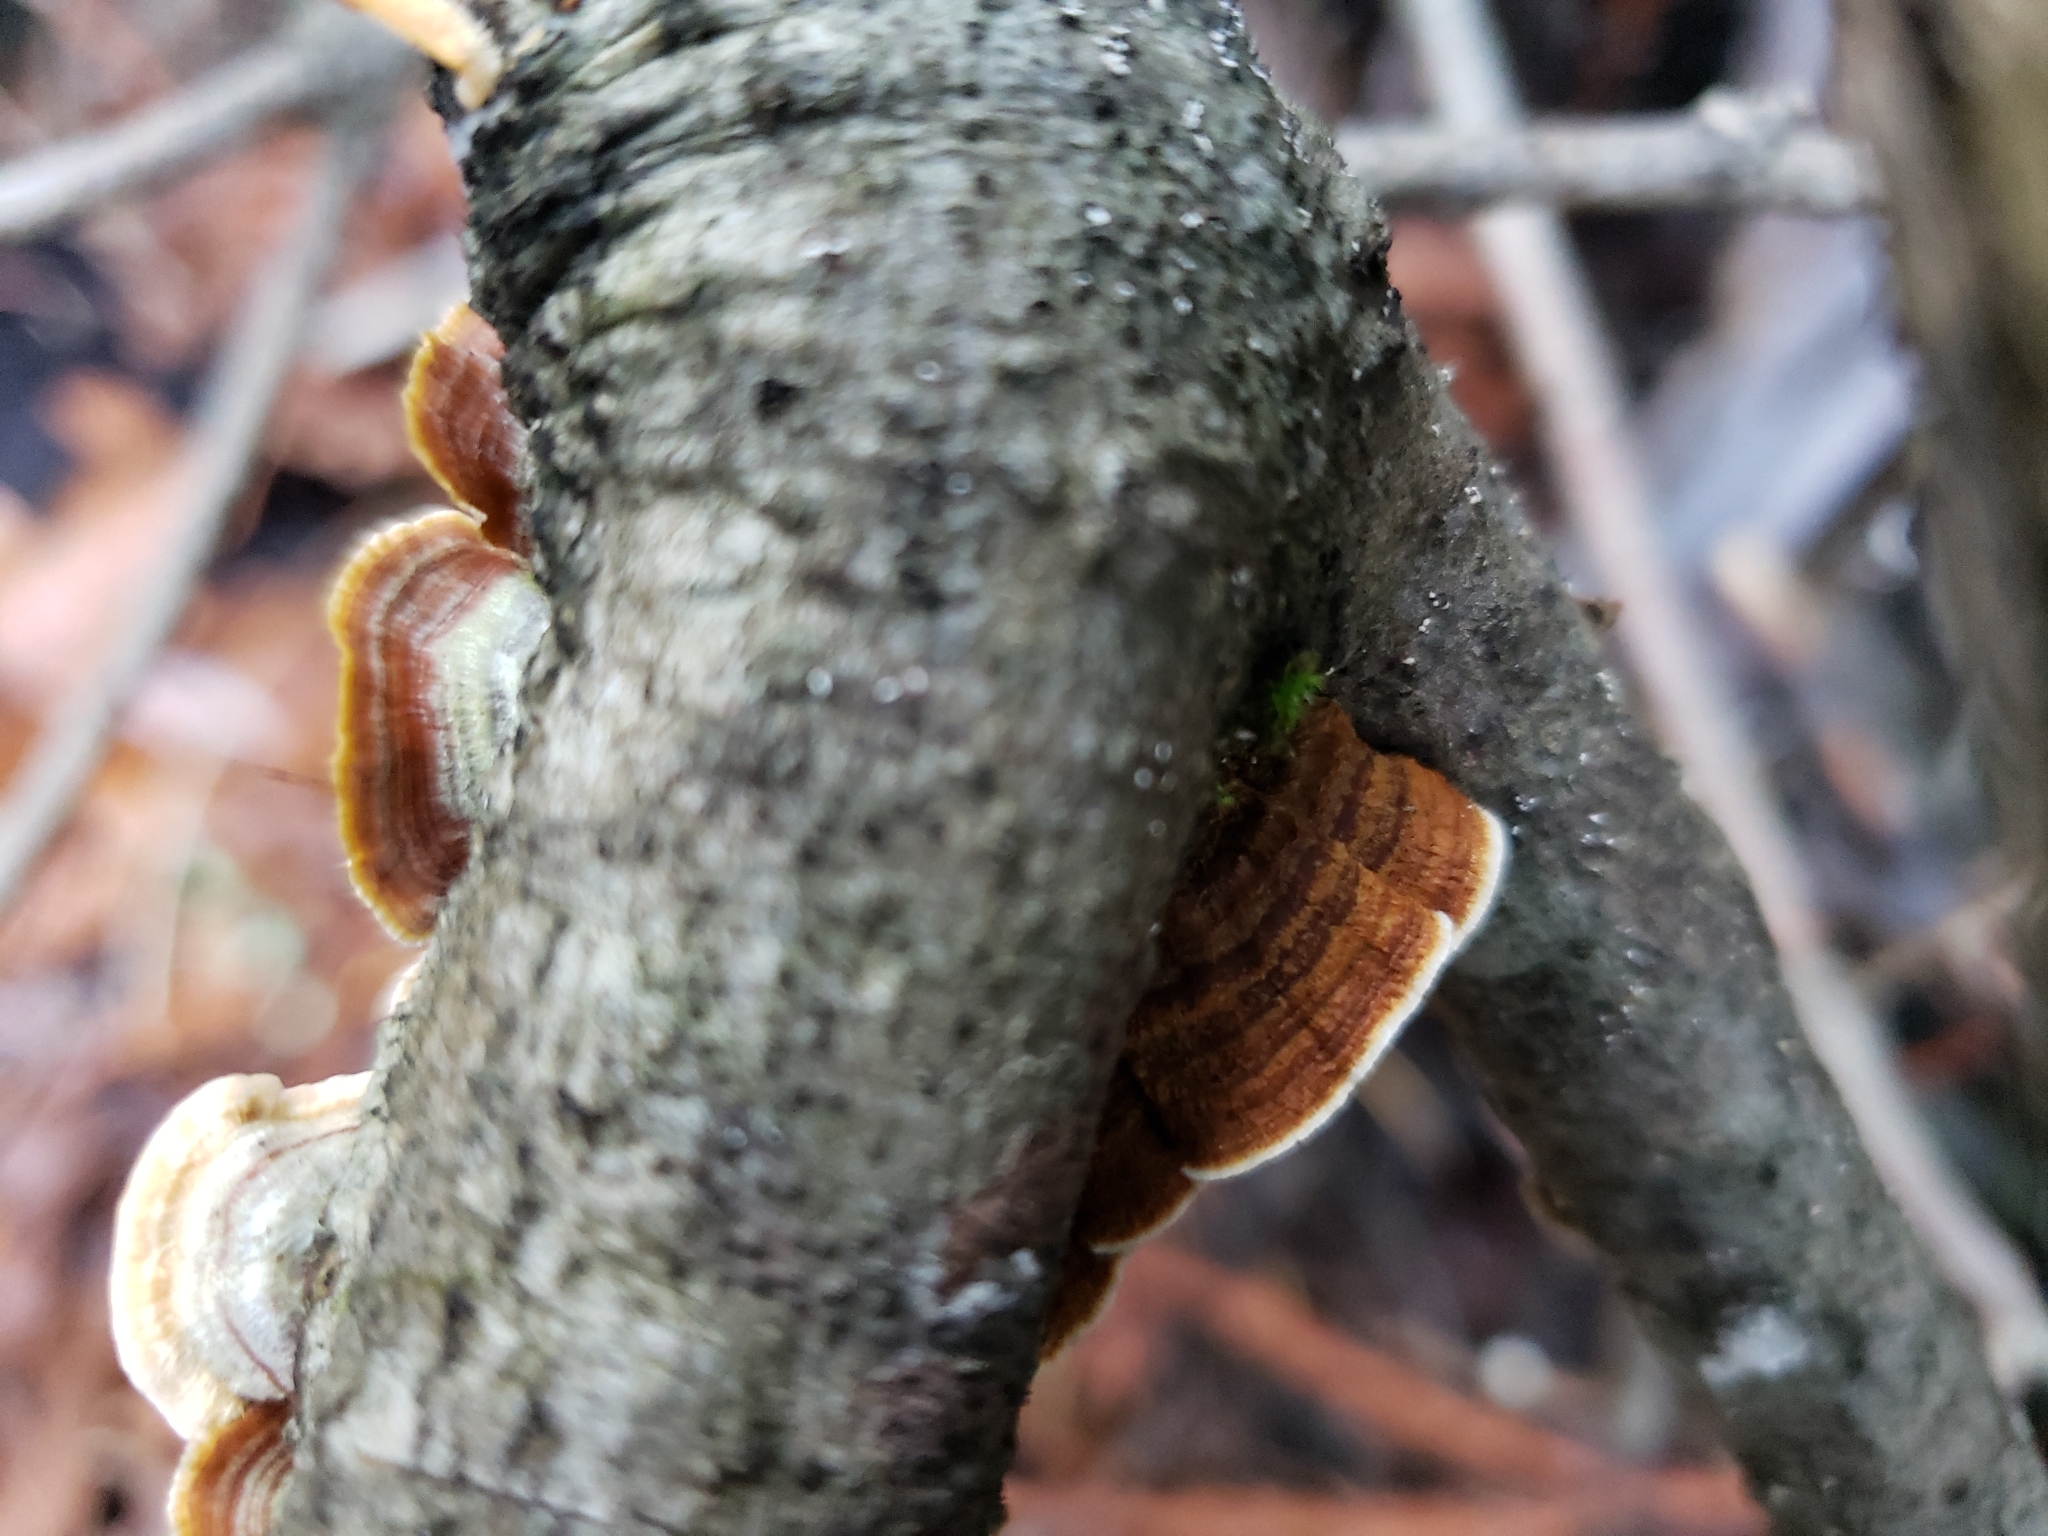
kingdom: Fungi
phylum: Basidiomycota
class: Agaricomycetes
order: Russulales
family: Stereaceae
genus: Stereum
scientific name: Stereum hirsutum
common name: Hairy curtain crust
